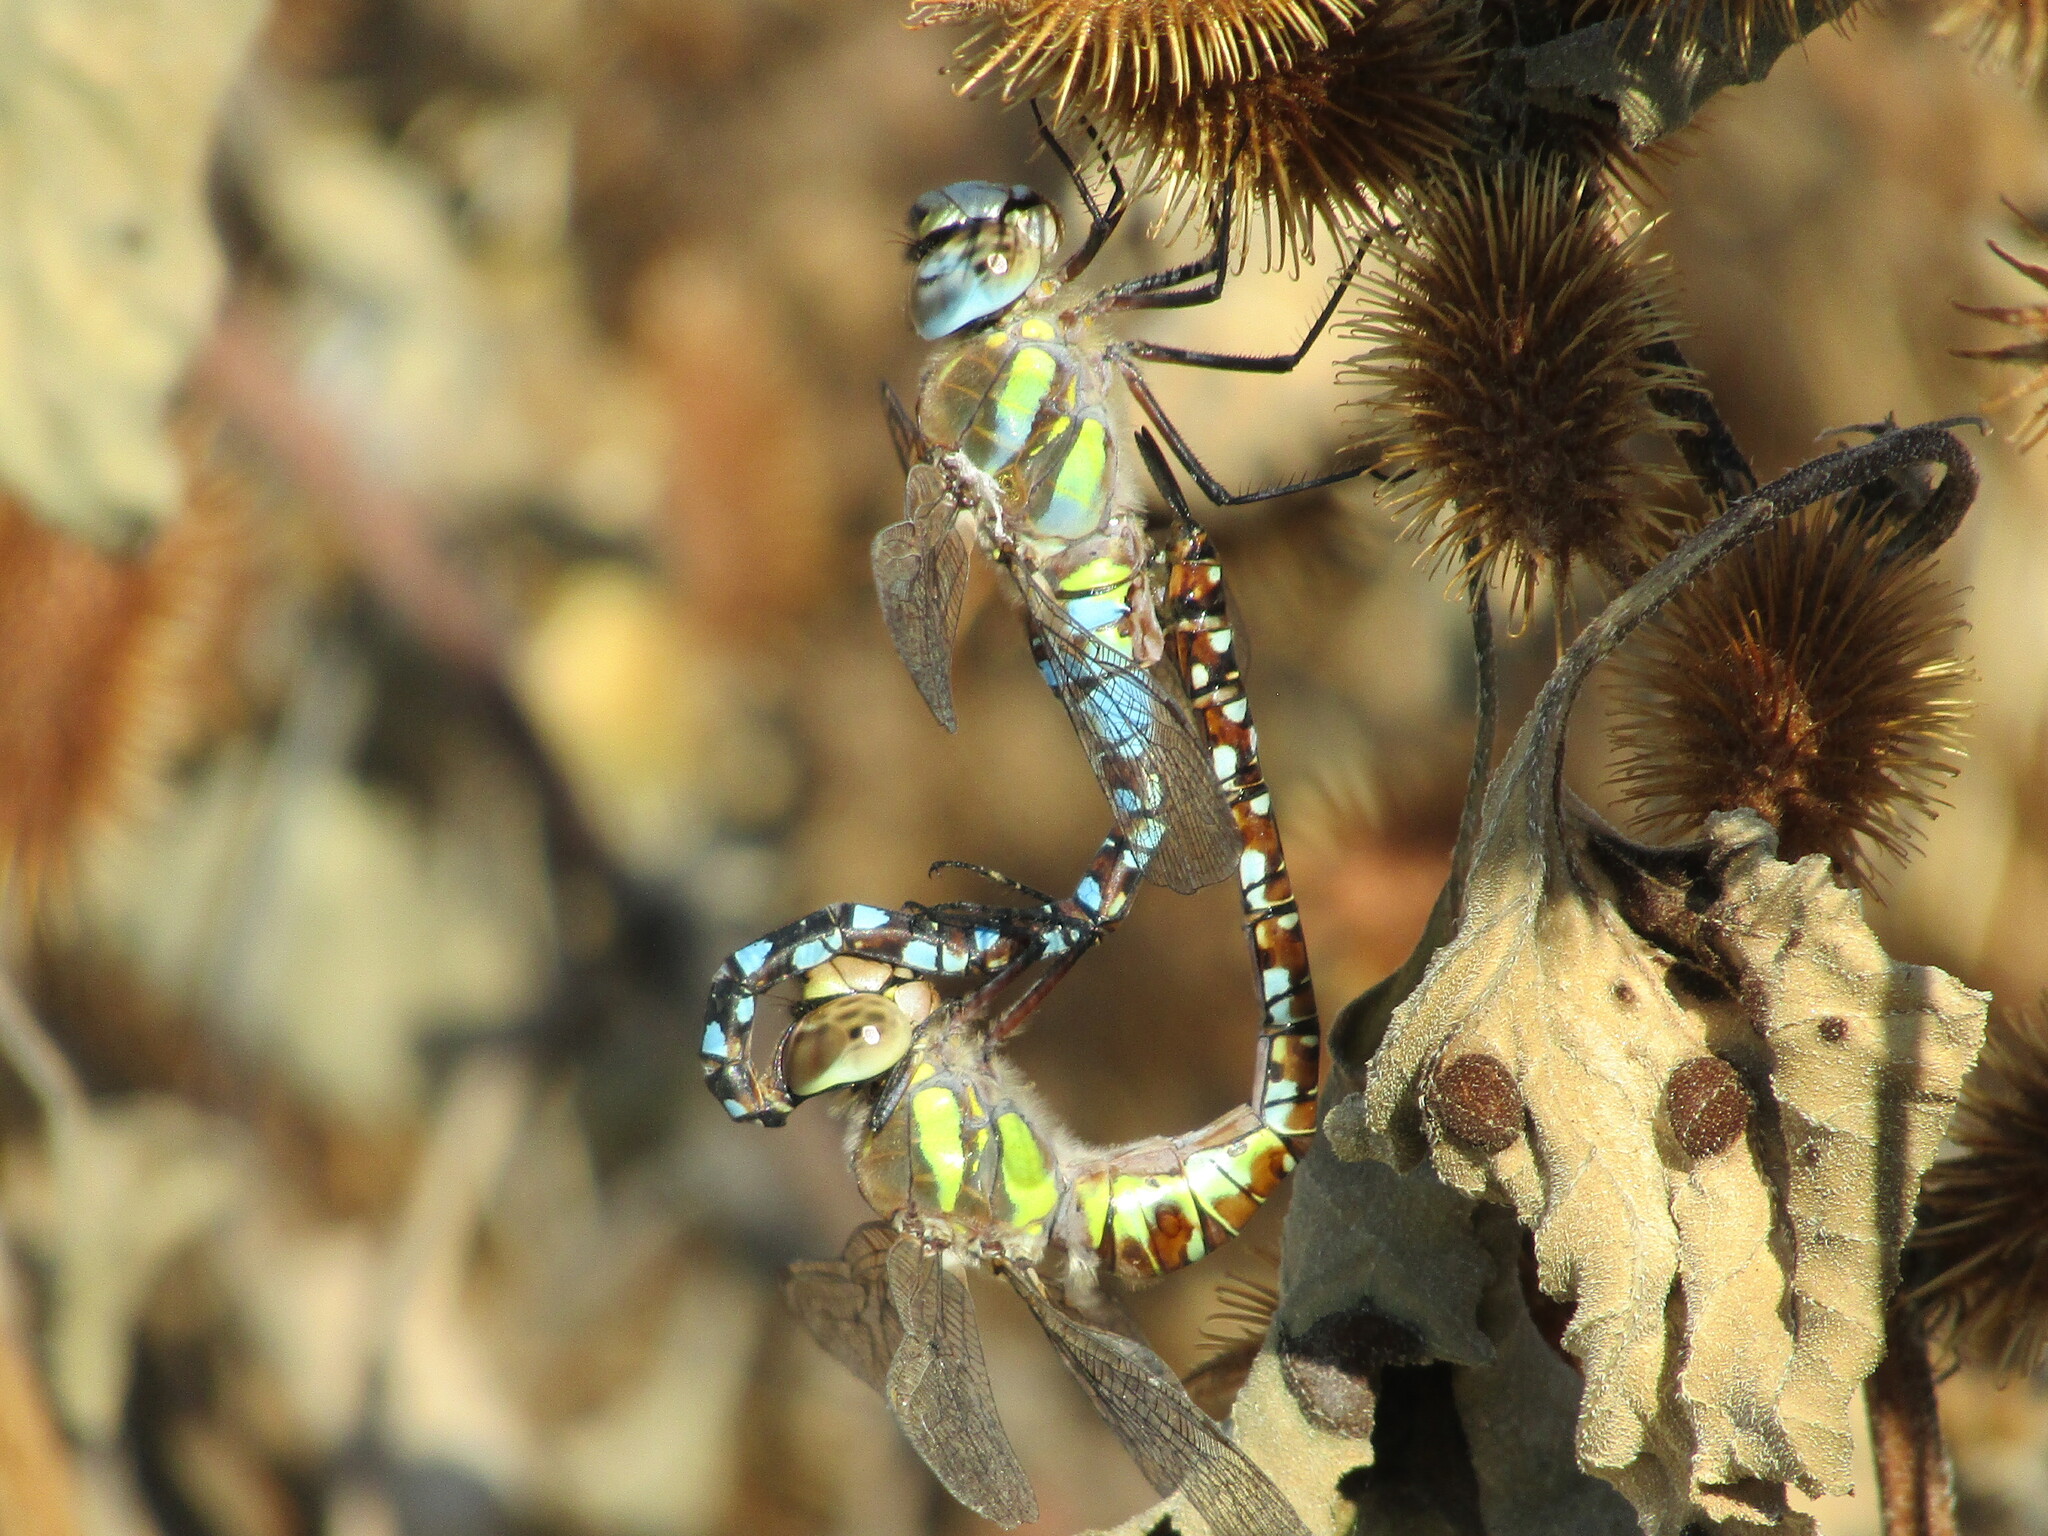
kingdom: Animalia
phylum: Arthropoda
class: Insecta
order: Odonata
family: Aeshnidae
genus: Aeshna
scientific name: Aeshna mixta
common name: Migrant hawker
